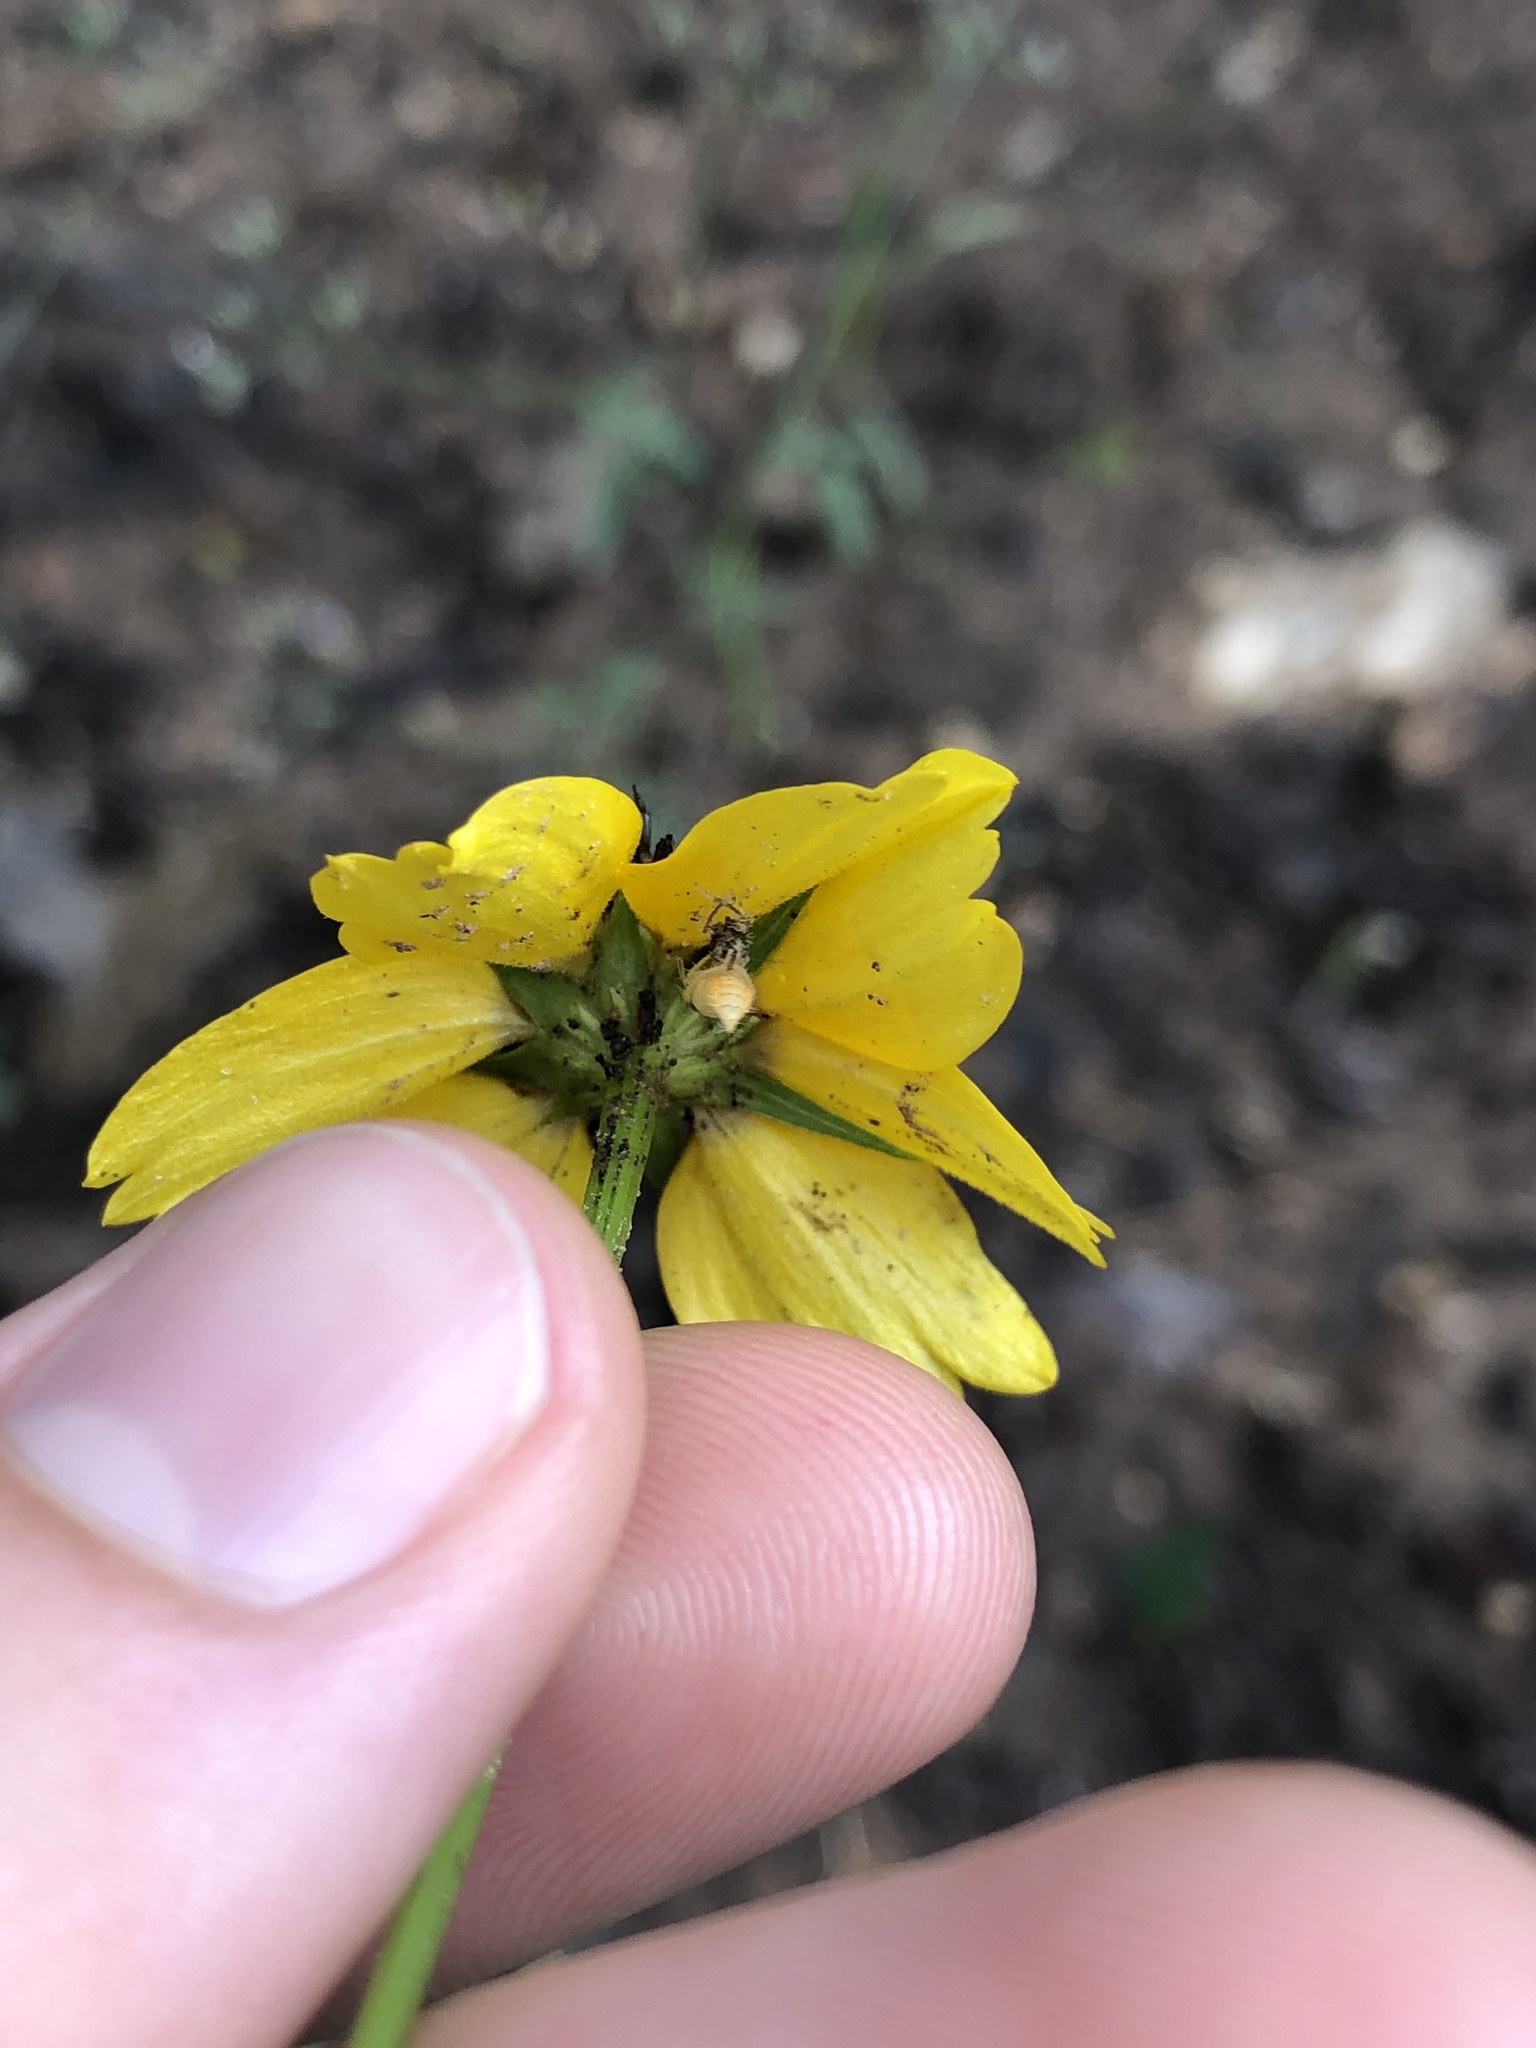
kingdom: Plantae
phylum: Tracheophyta
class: Magnoliopsida
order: Asterales
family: Asteraceae
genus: Rudbeckia
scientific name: Rudbeckia amplexicaulis
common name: Clasping-leaf coneflower
